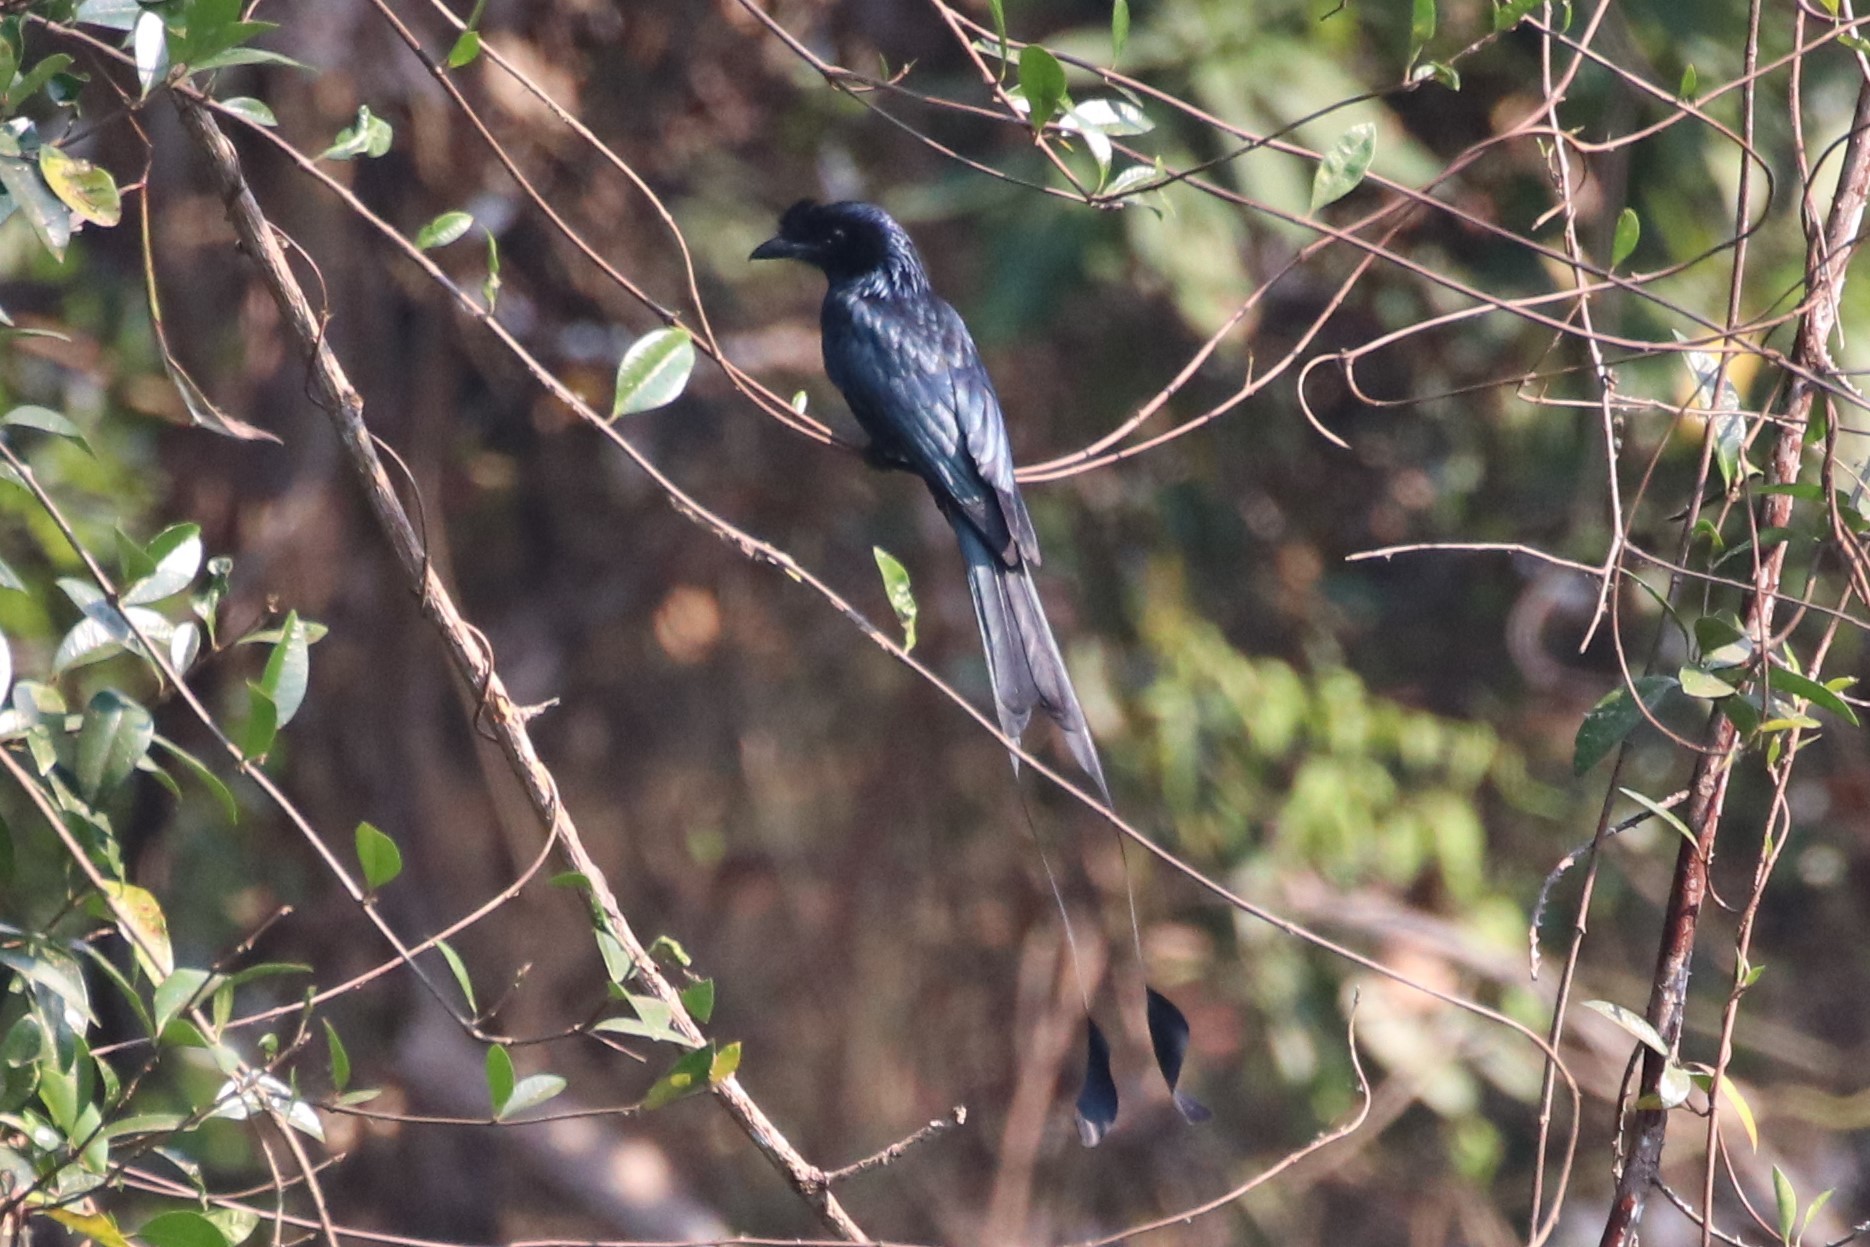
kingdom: Animalia
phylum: Chordata
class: Aves
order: Passeriformes
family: Dicruridae
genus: Dicrurus
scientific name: Dicrurus paradiseus
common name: Greater racket-tailed drongo
